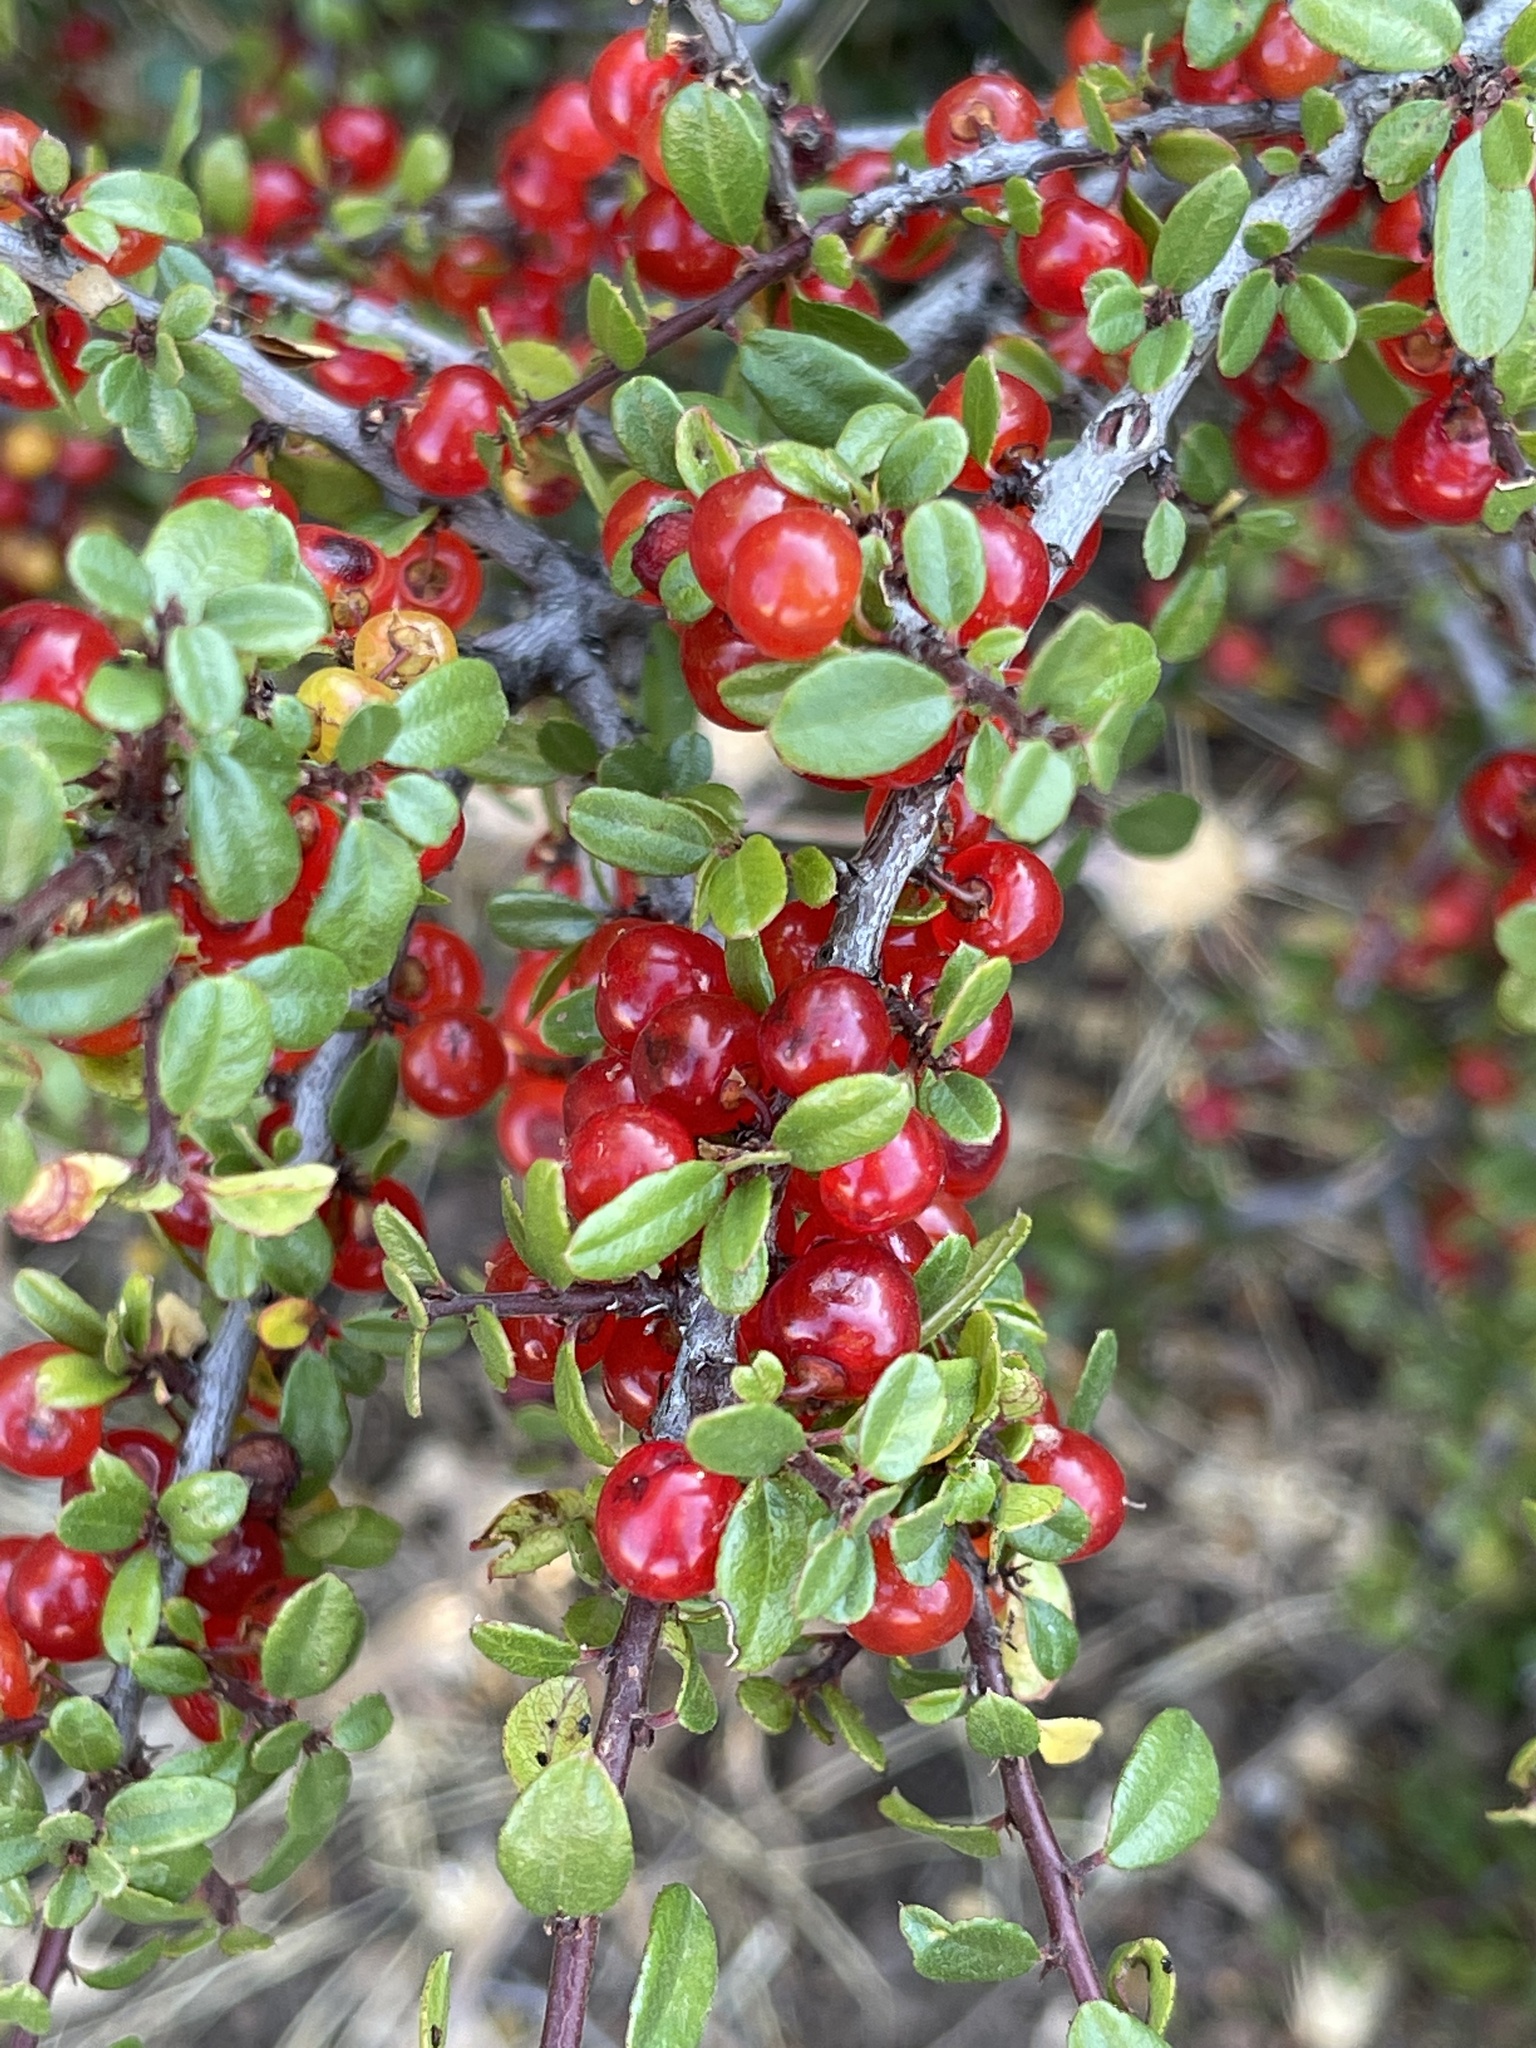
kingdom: Plantae
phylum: Tracheophyta
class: Magnoliopsida
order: Rosales
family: Rhamnaceae
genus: Endotropis
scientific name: Endotropis crocea
